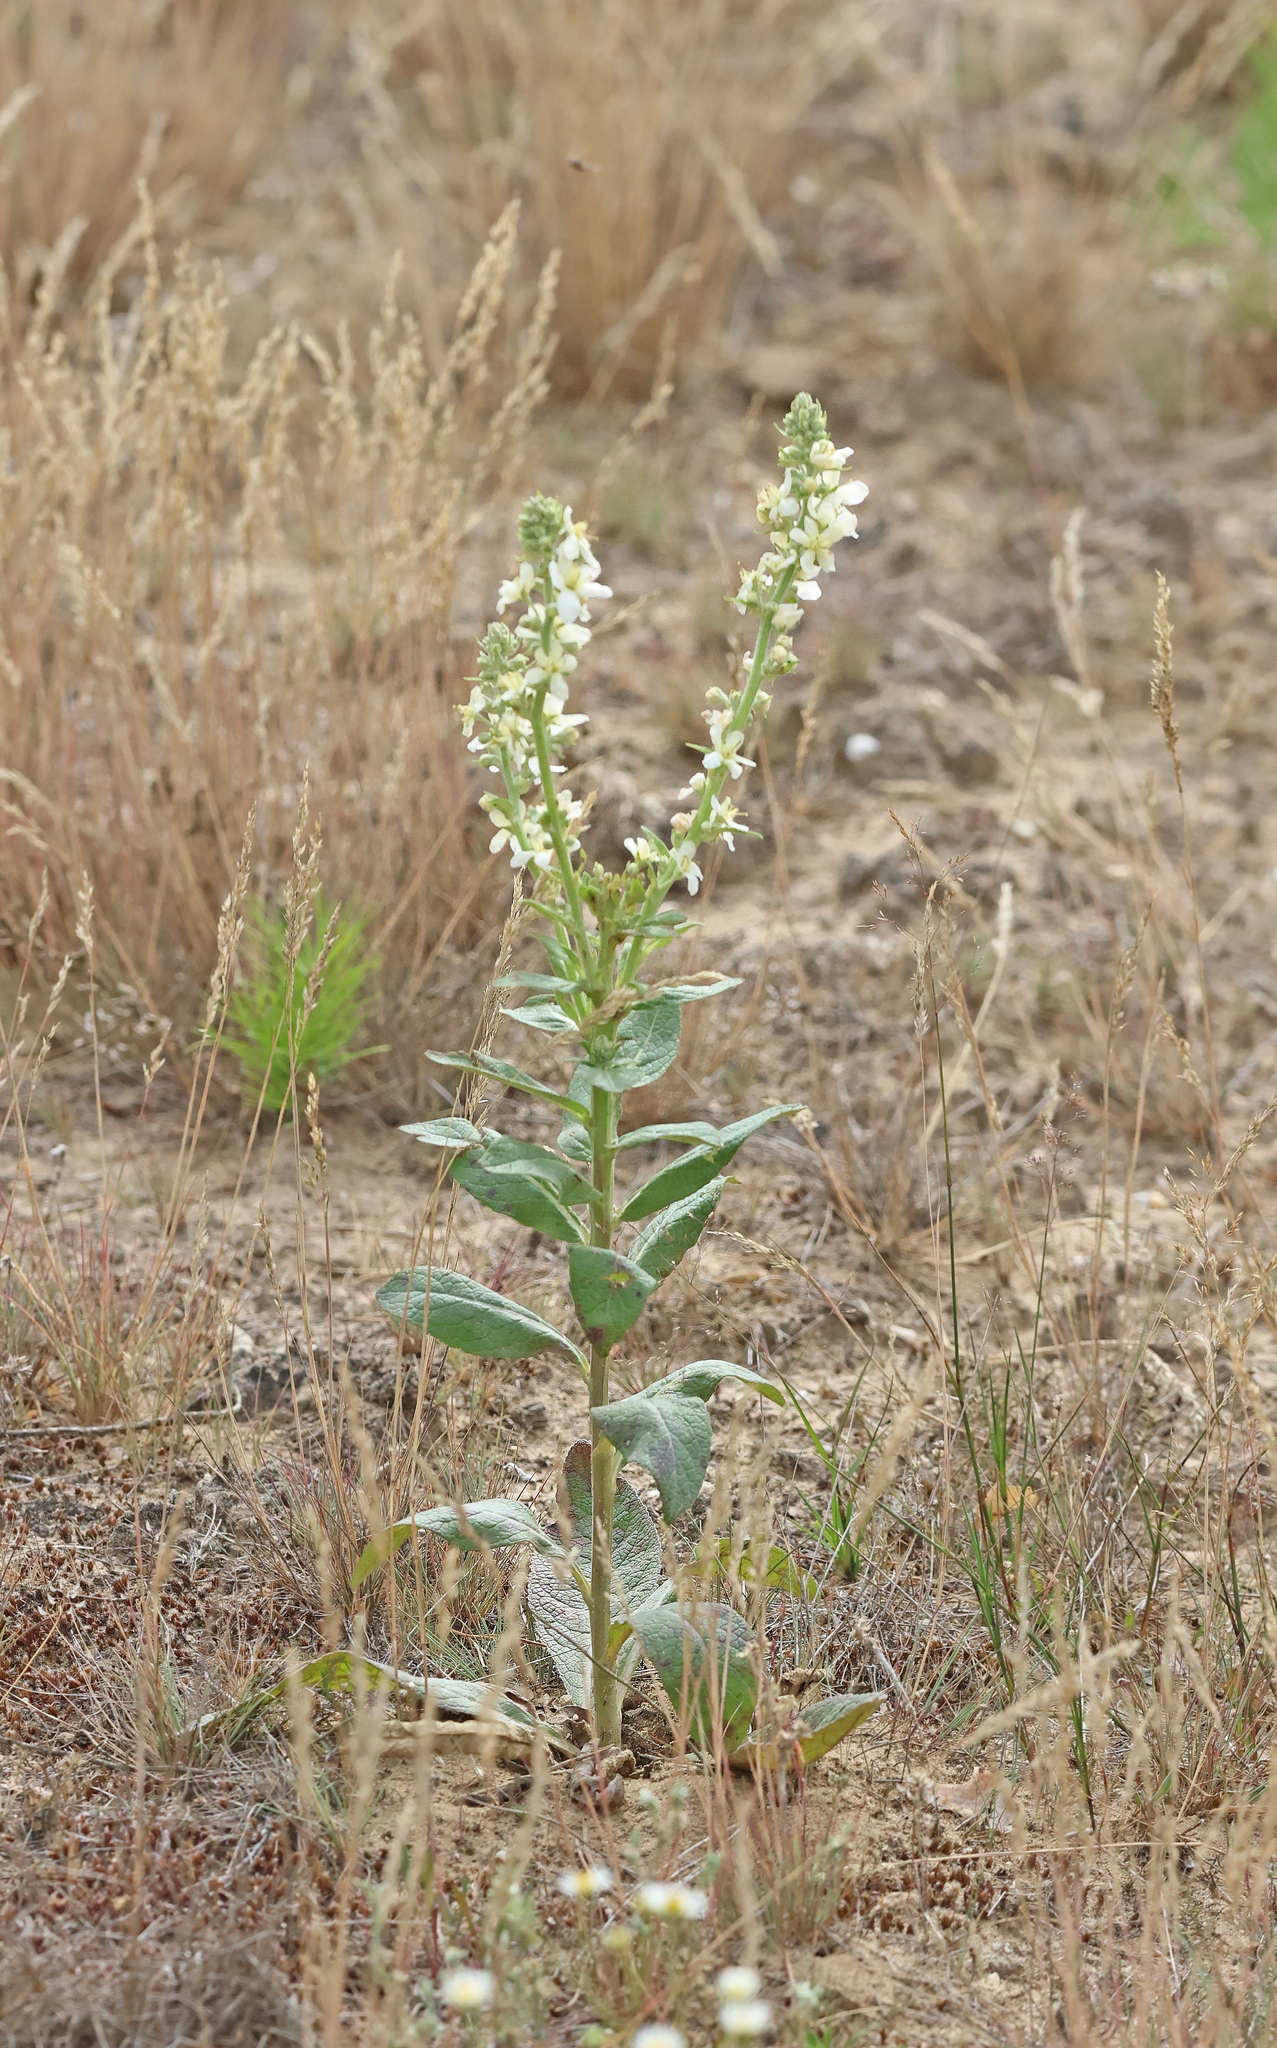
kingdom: Plantae
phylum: Tracheophyta
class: Magnoliopsida
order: Lamiales
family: Scrophulariaceae
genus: Verbascum
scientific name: Verbascum lychnitis
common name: White mullein
